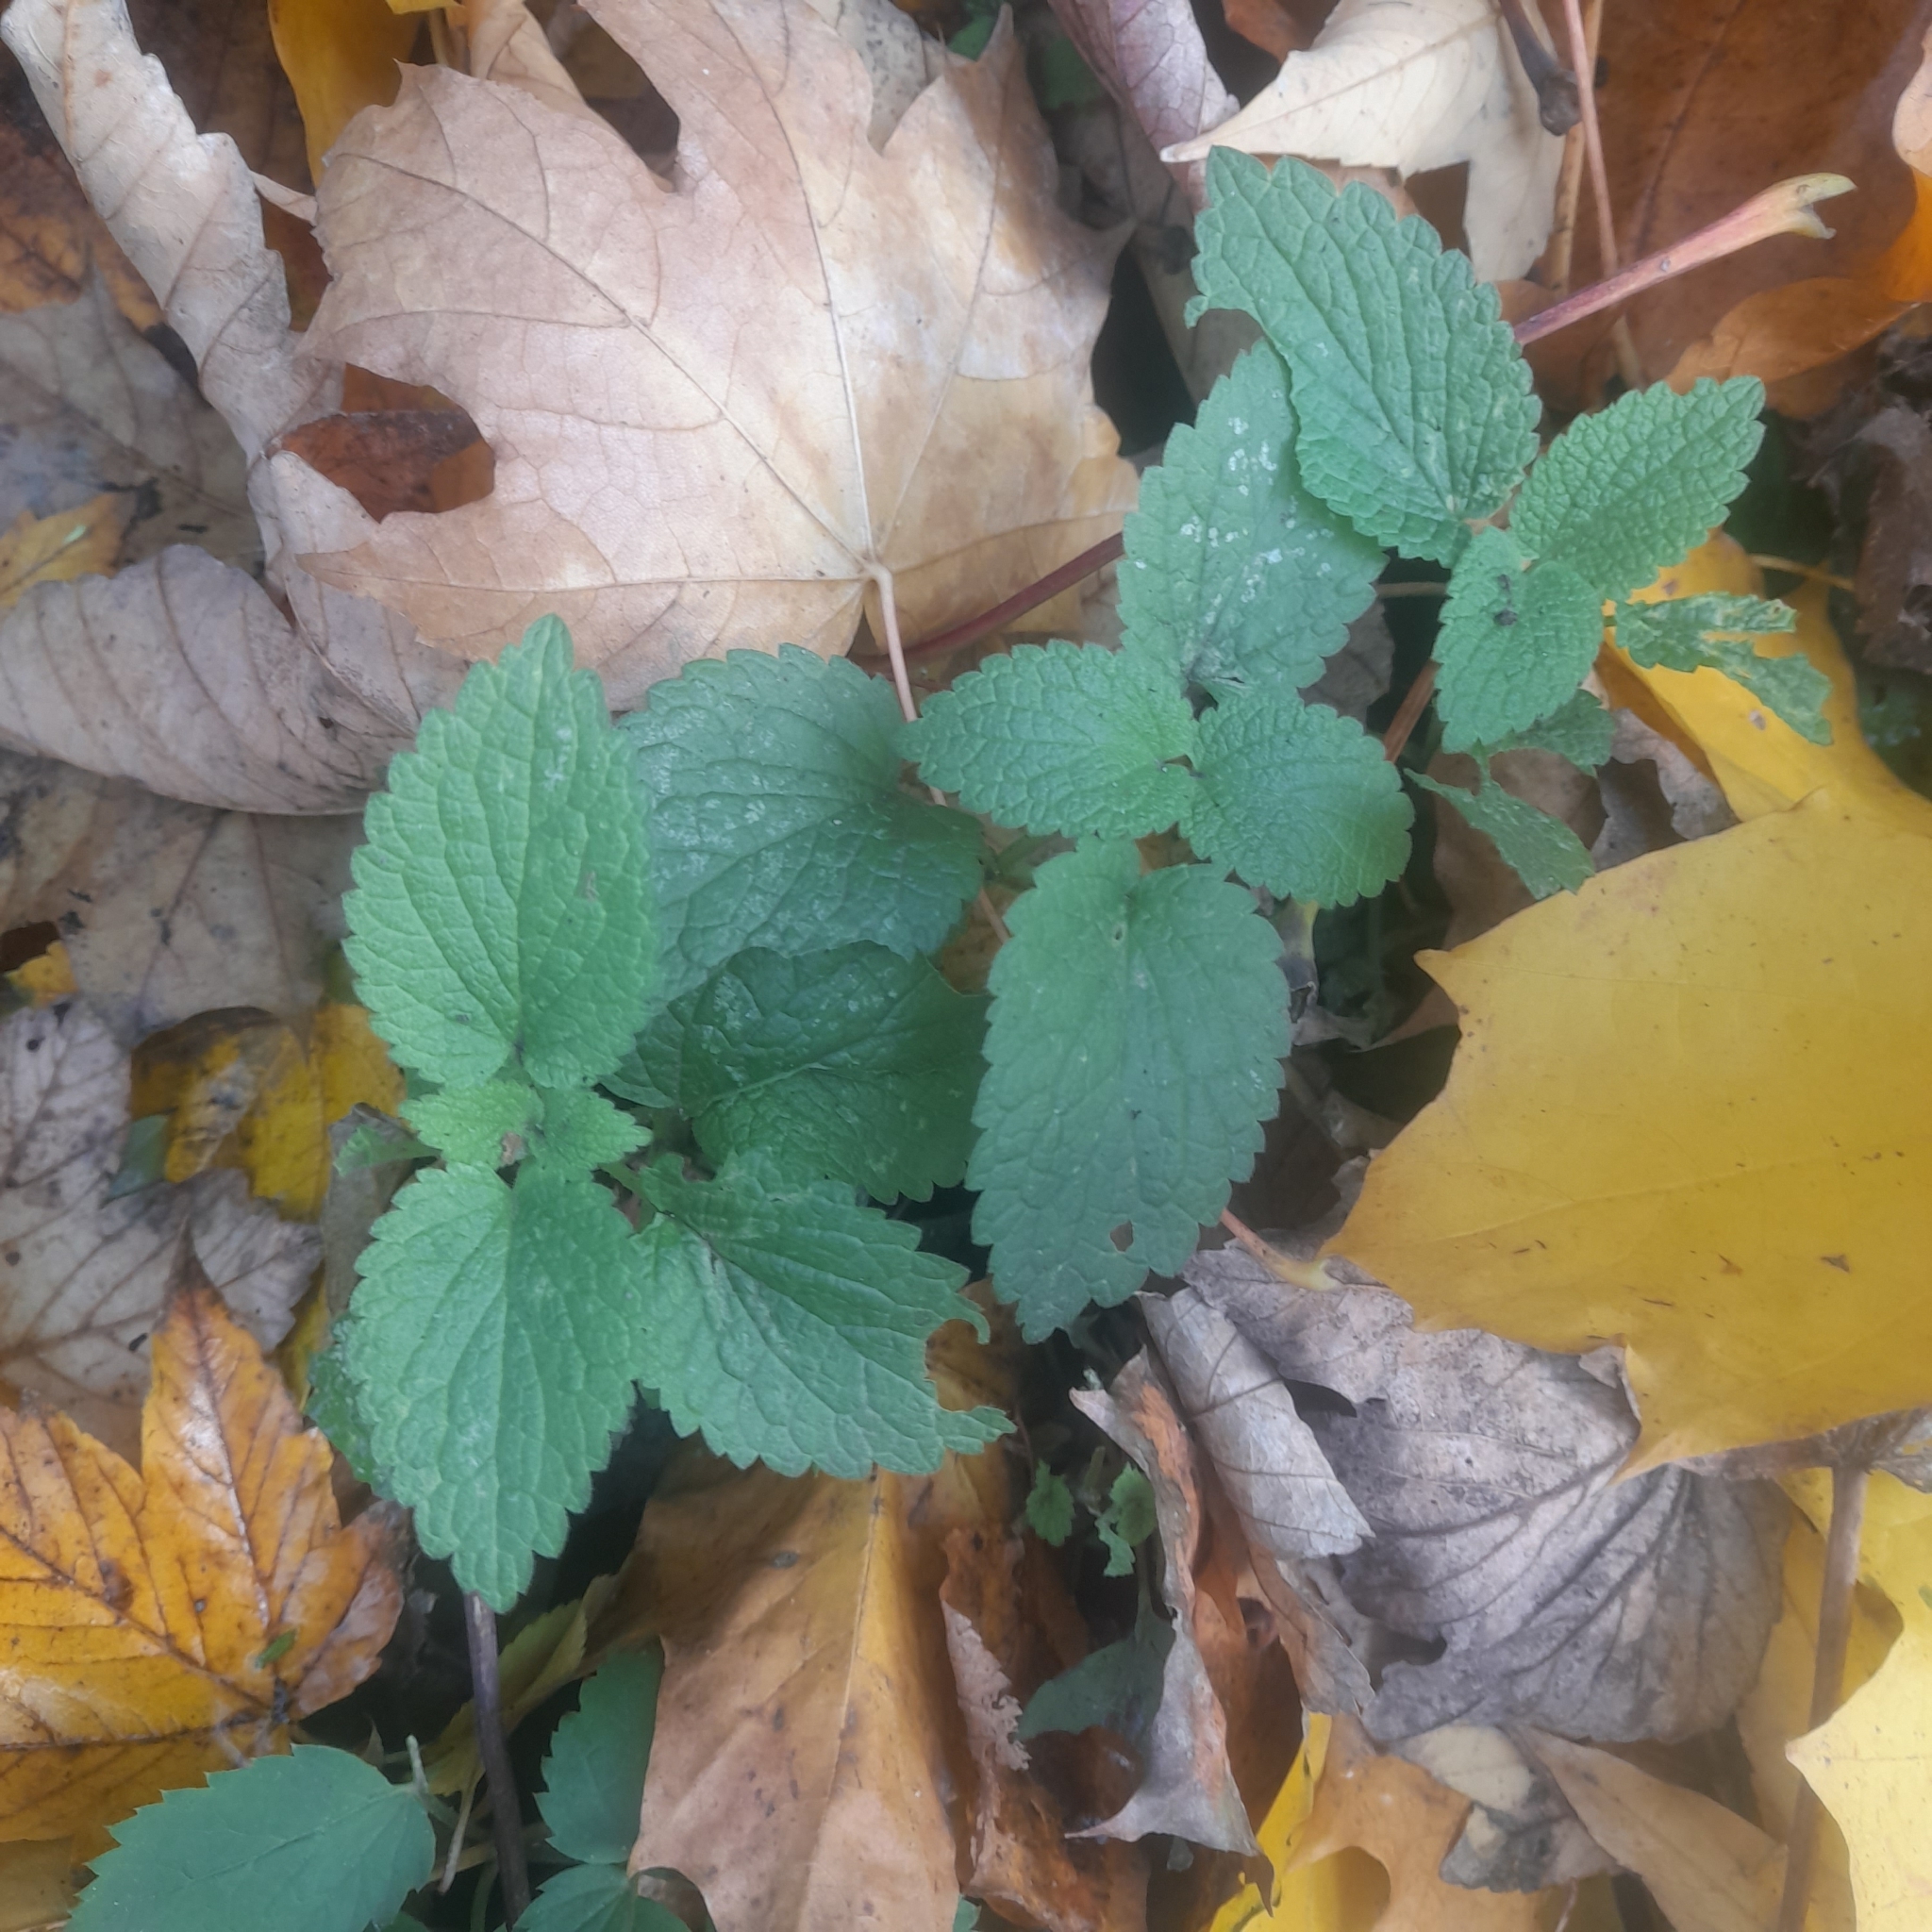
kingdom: Plantae
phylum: Tracheophyta
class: Magnoliopsida
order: Lamiales
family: Lamiaceae
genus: Lamium
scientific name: Lamium album
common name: White dead-nettle
